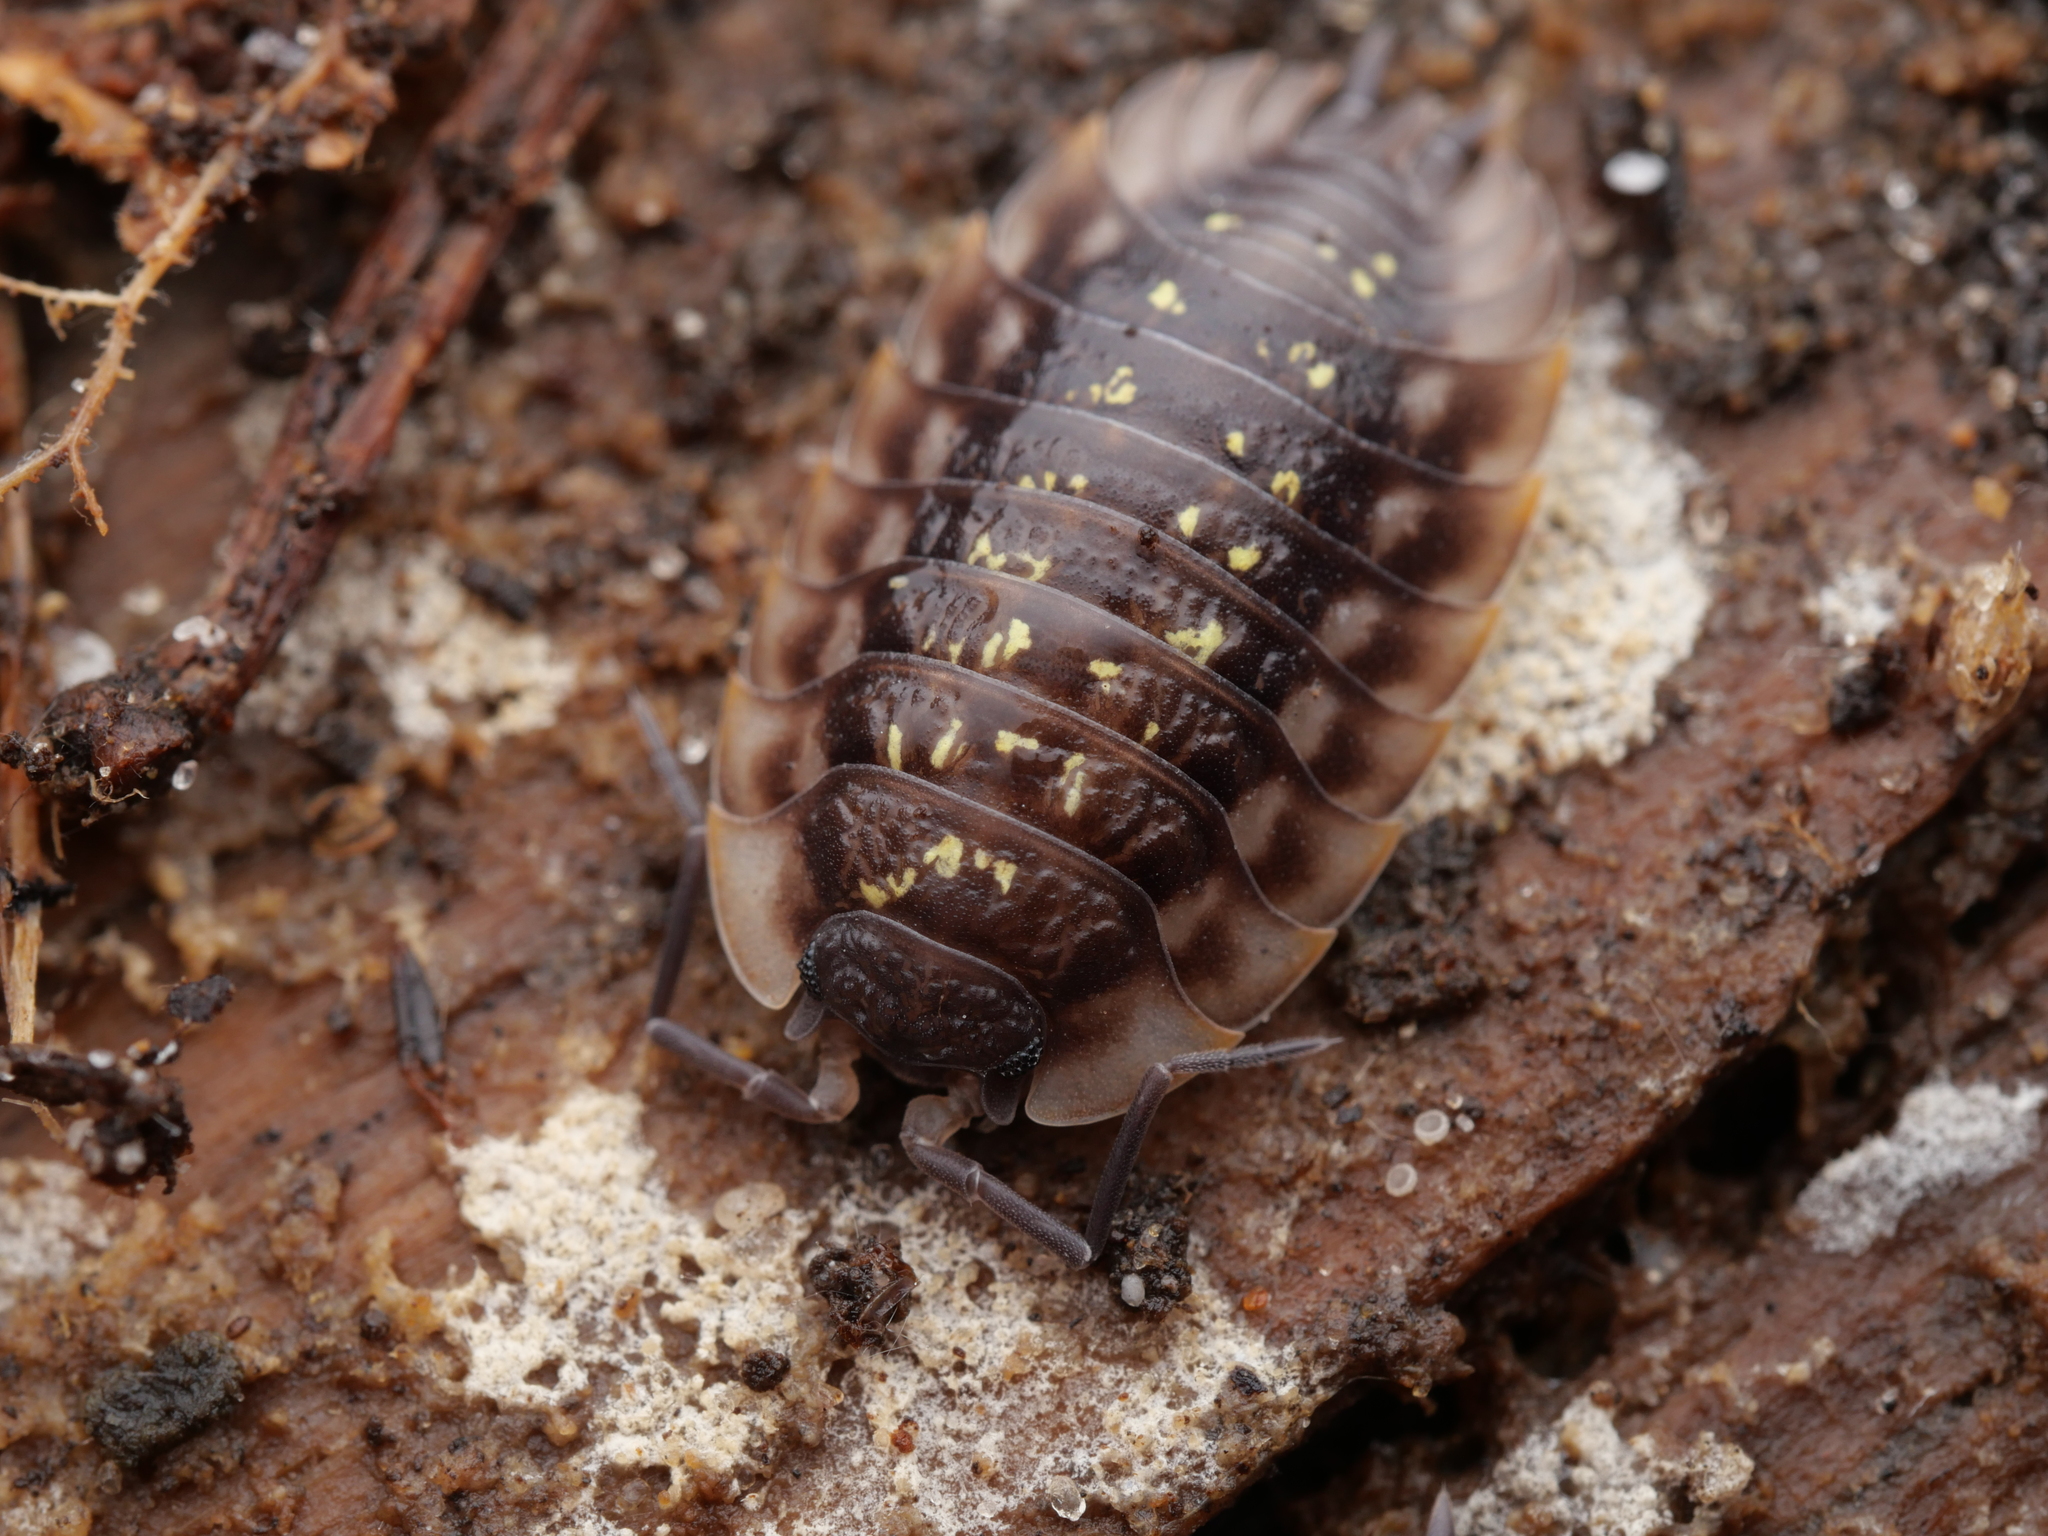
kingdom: Animalia
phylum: Arthropoda
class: Malacostraca
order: Isopoda
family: Oniscidae
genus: Oniscus
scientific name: Oniscus asellus
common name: Common shiny woodlouse
